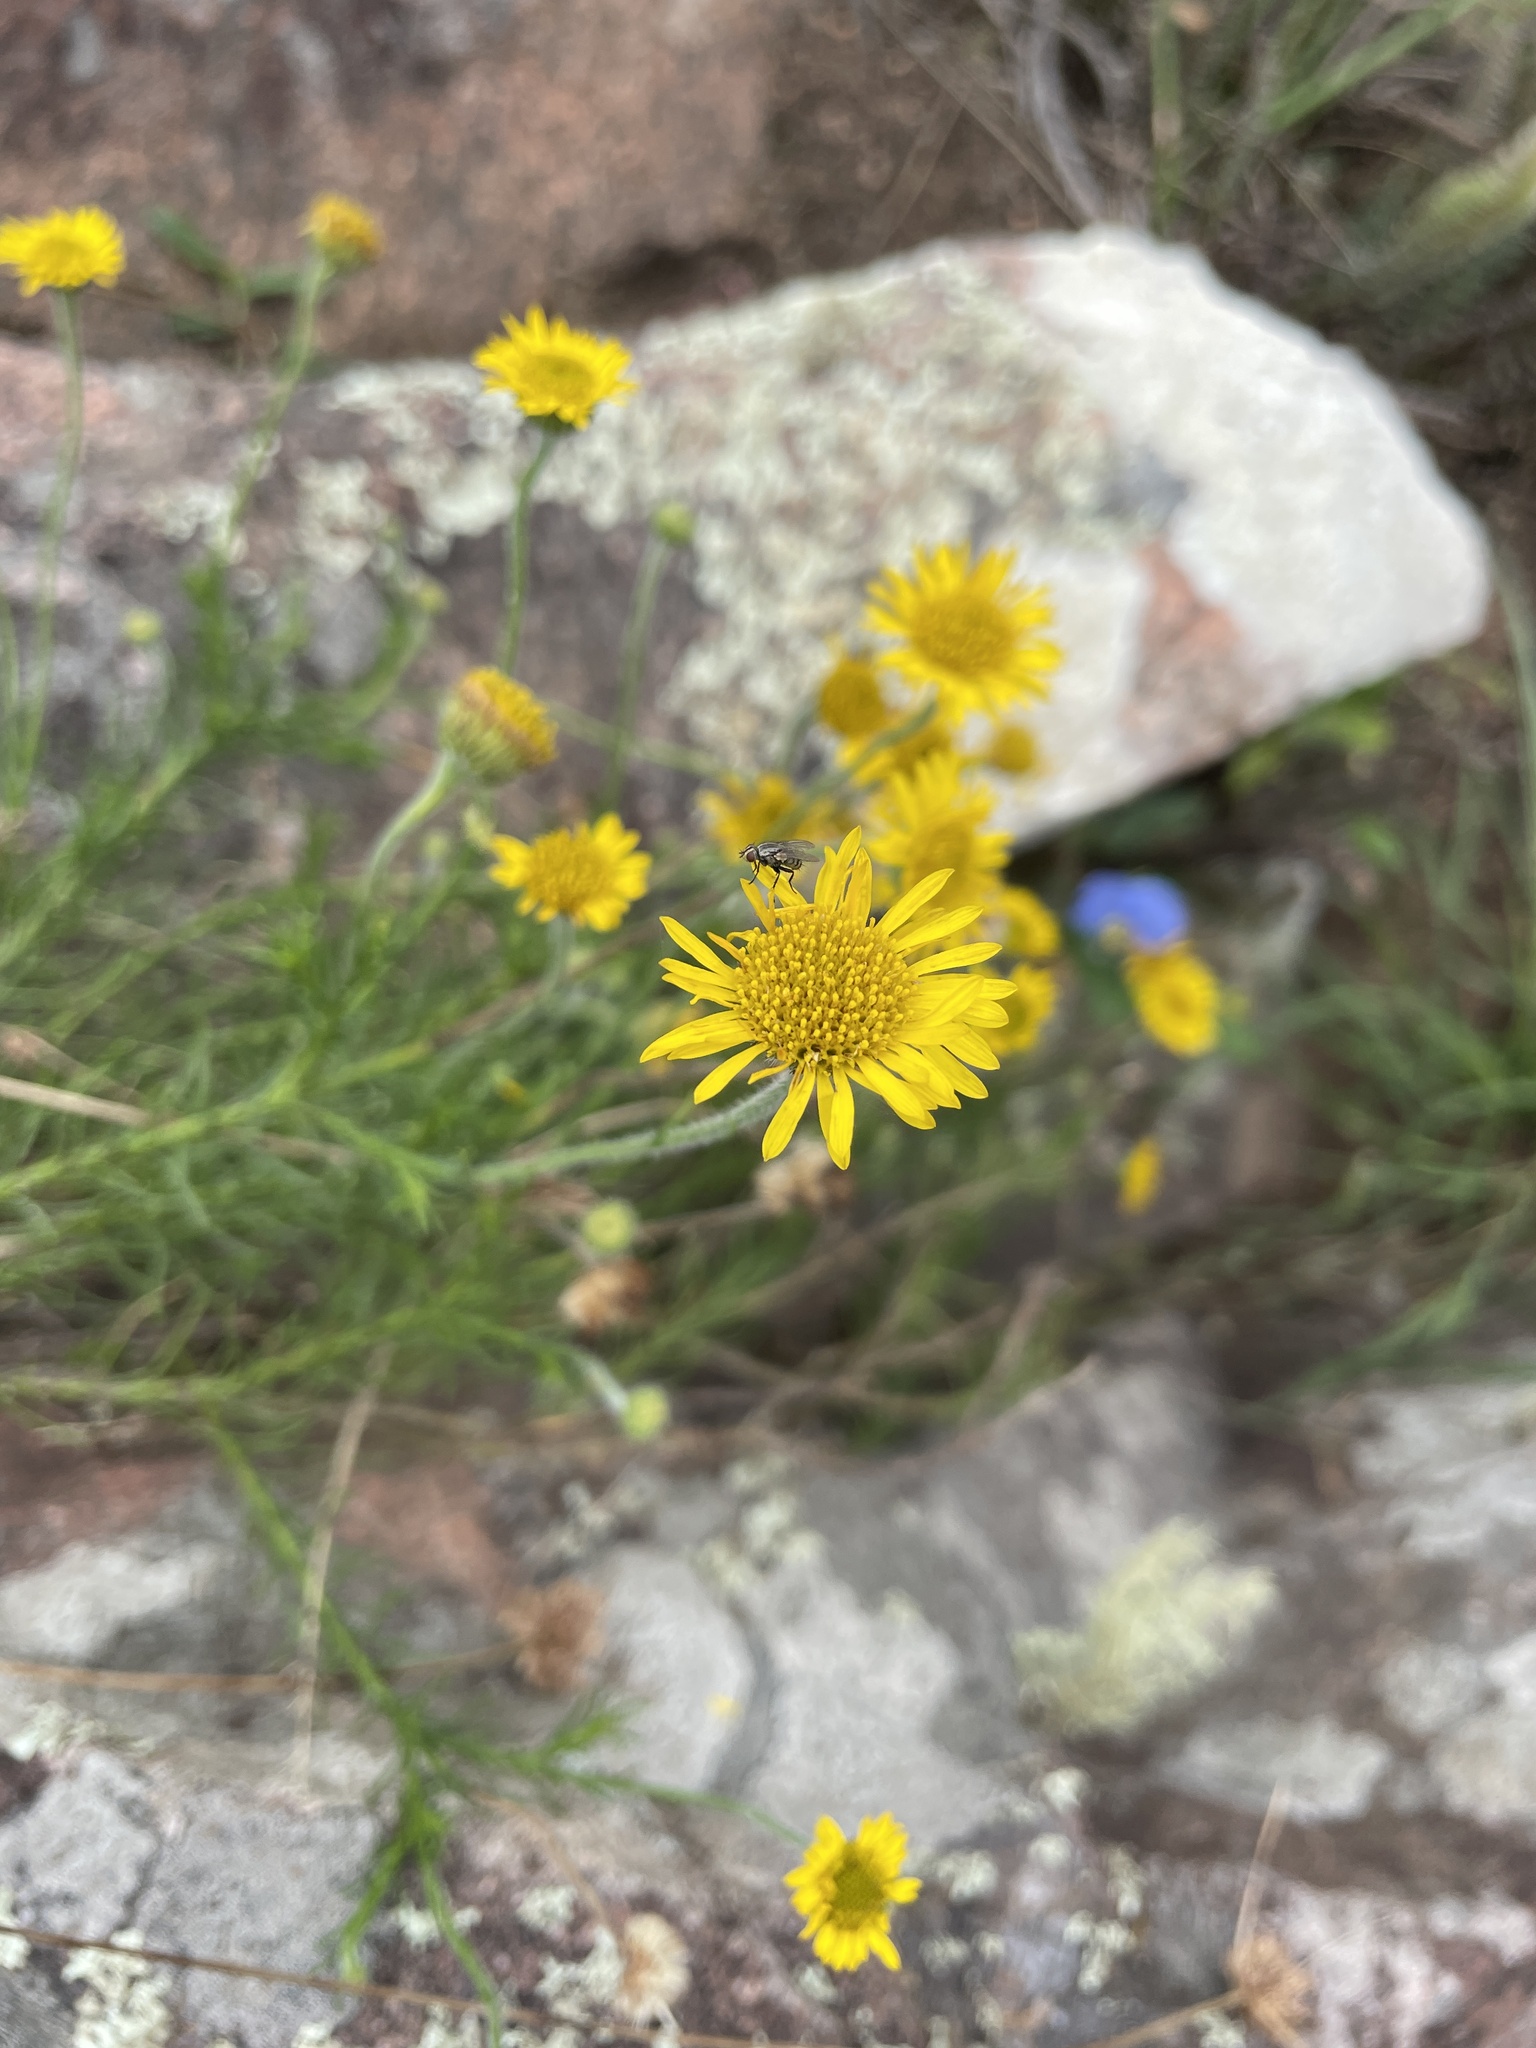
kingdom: Plantae
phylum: Tracheophyta
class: Magnoliopsida
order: Asterales
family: Asteraceae
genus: Neja
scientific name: Neja pinifolia
